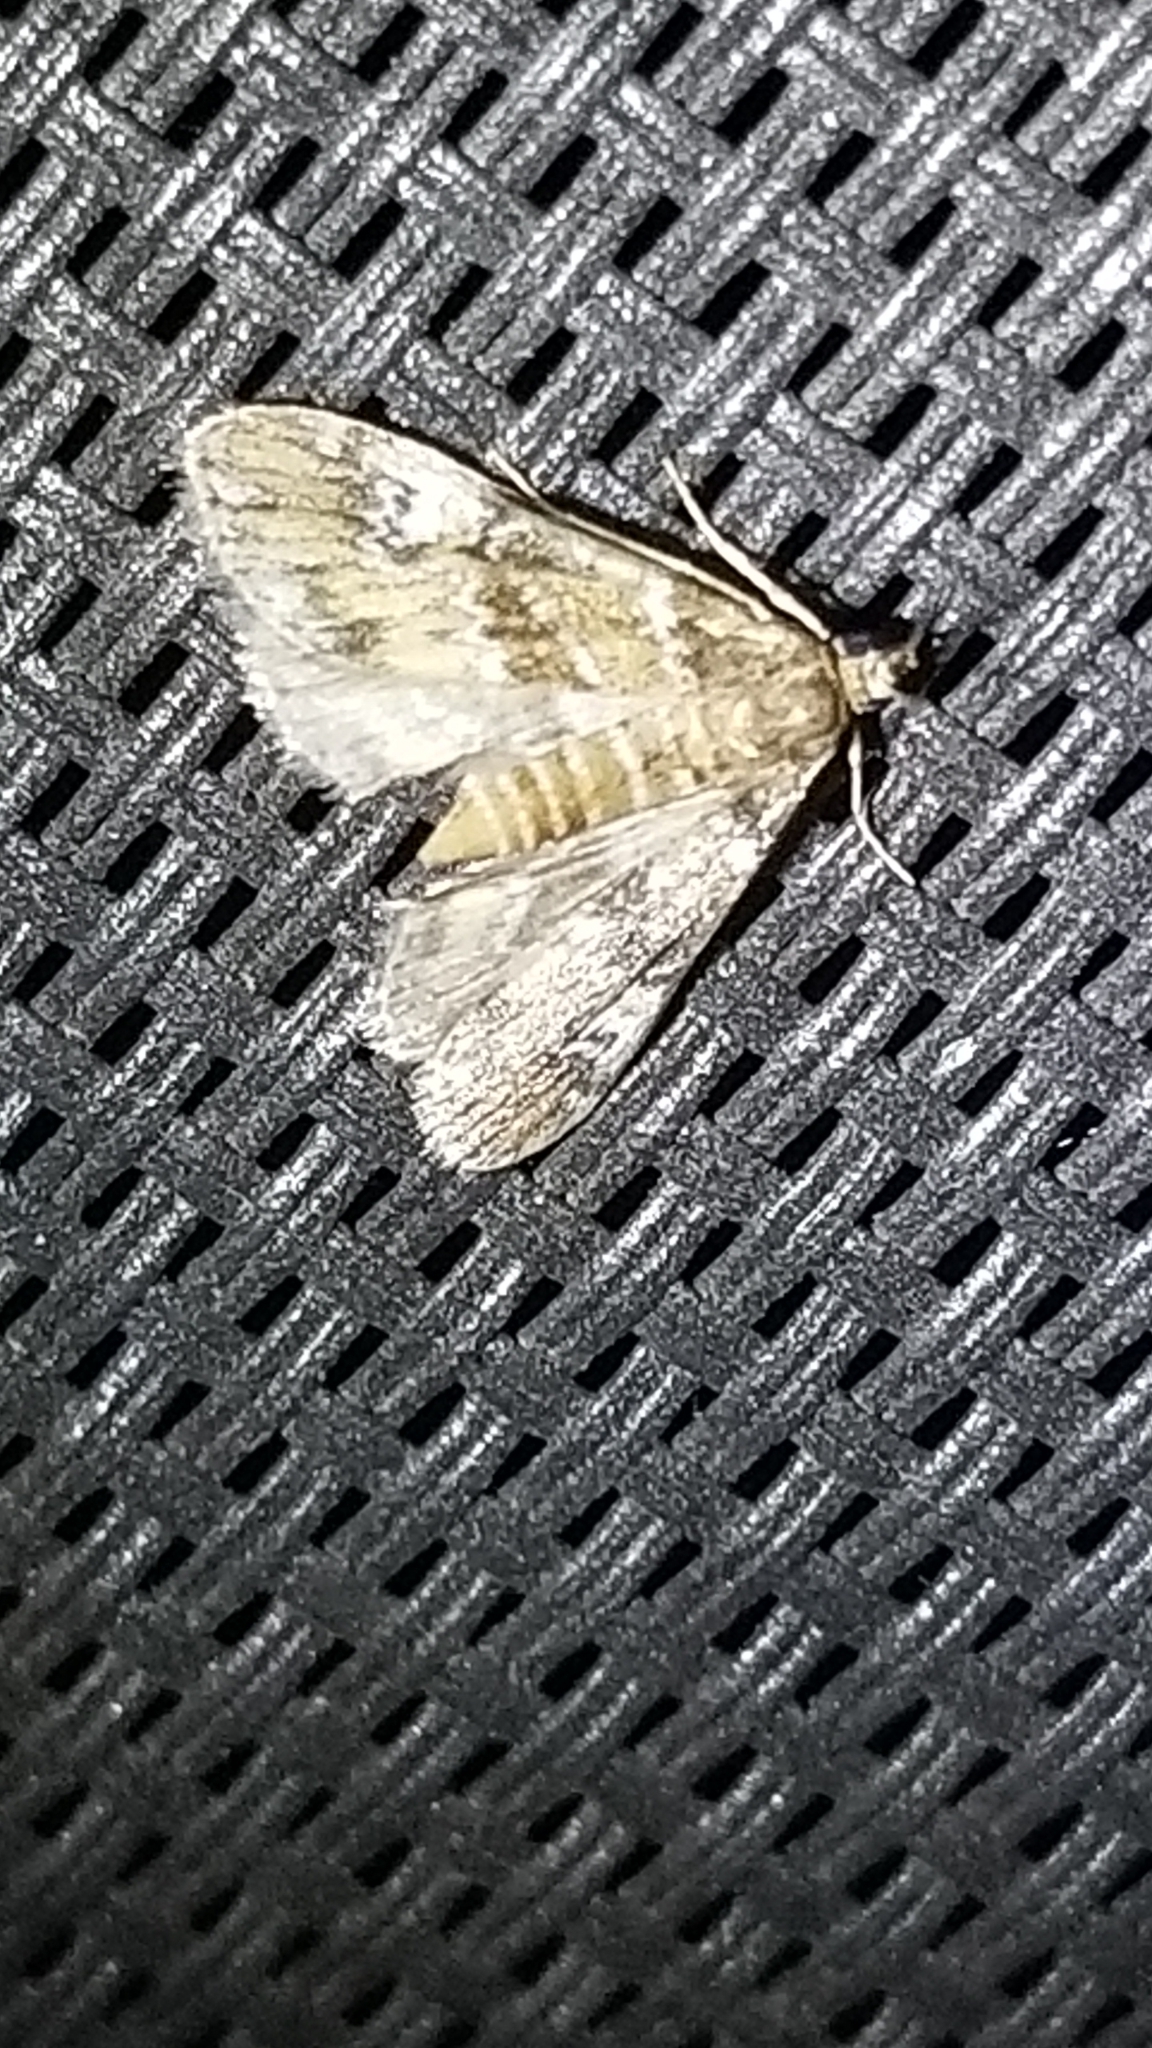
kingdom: Animalia
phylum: Arthropoda
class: Insecta
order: Lepidoptera
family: Crambidae
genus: Elophila
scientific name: Elophila obliteralis
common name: Waterlily leafcutter moth
